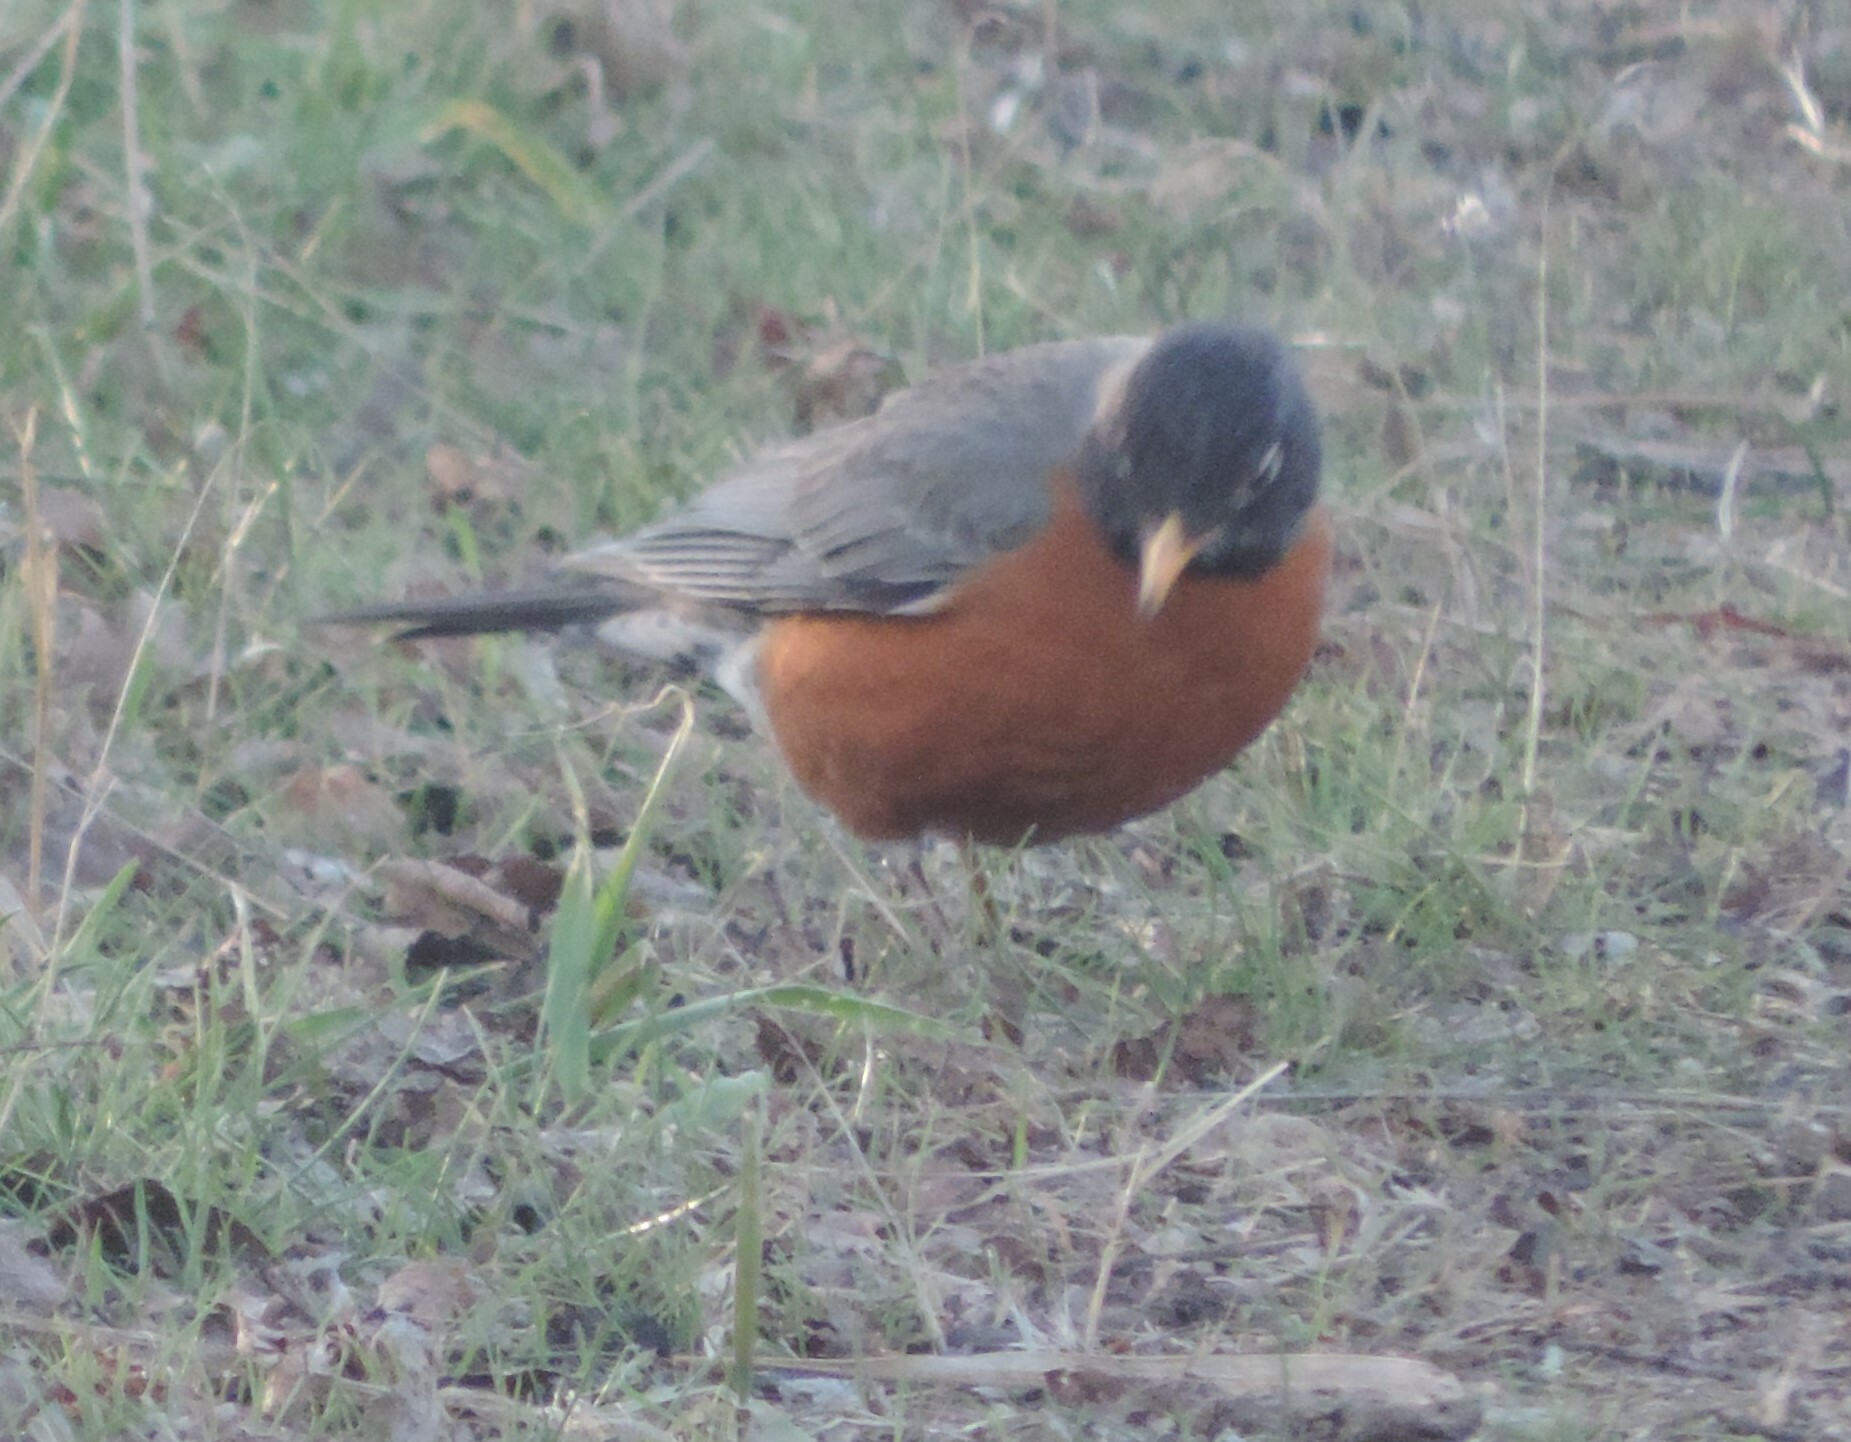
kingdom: Animalia
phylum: Chordata
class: Aves
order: Passeriformes
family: Turdidae
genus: Turdus
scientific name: Turdus migratorius
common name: American robin
